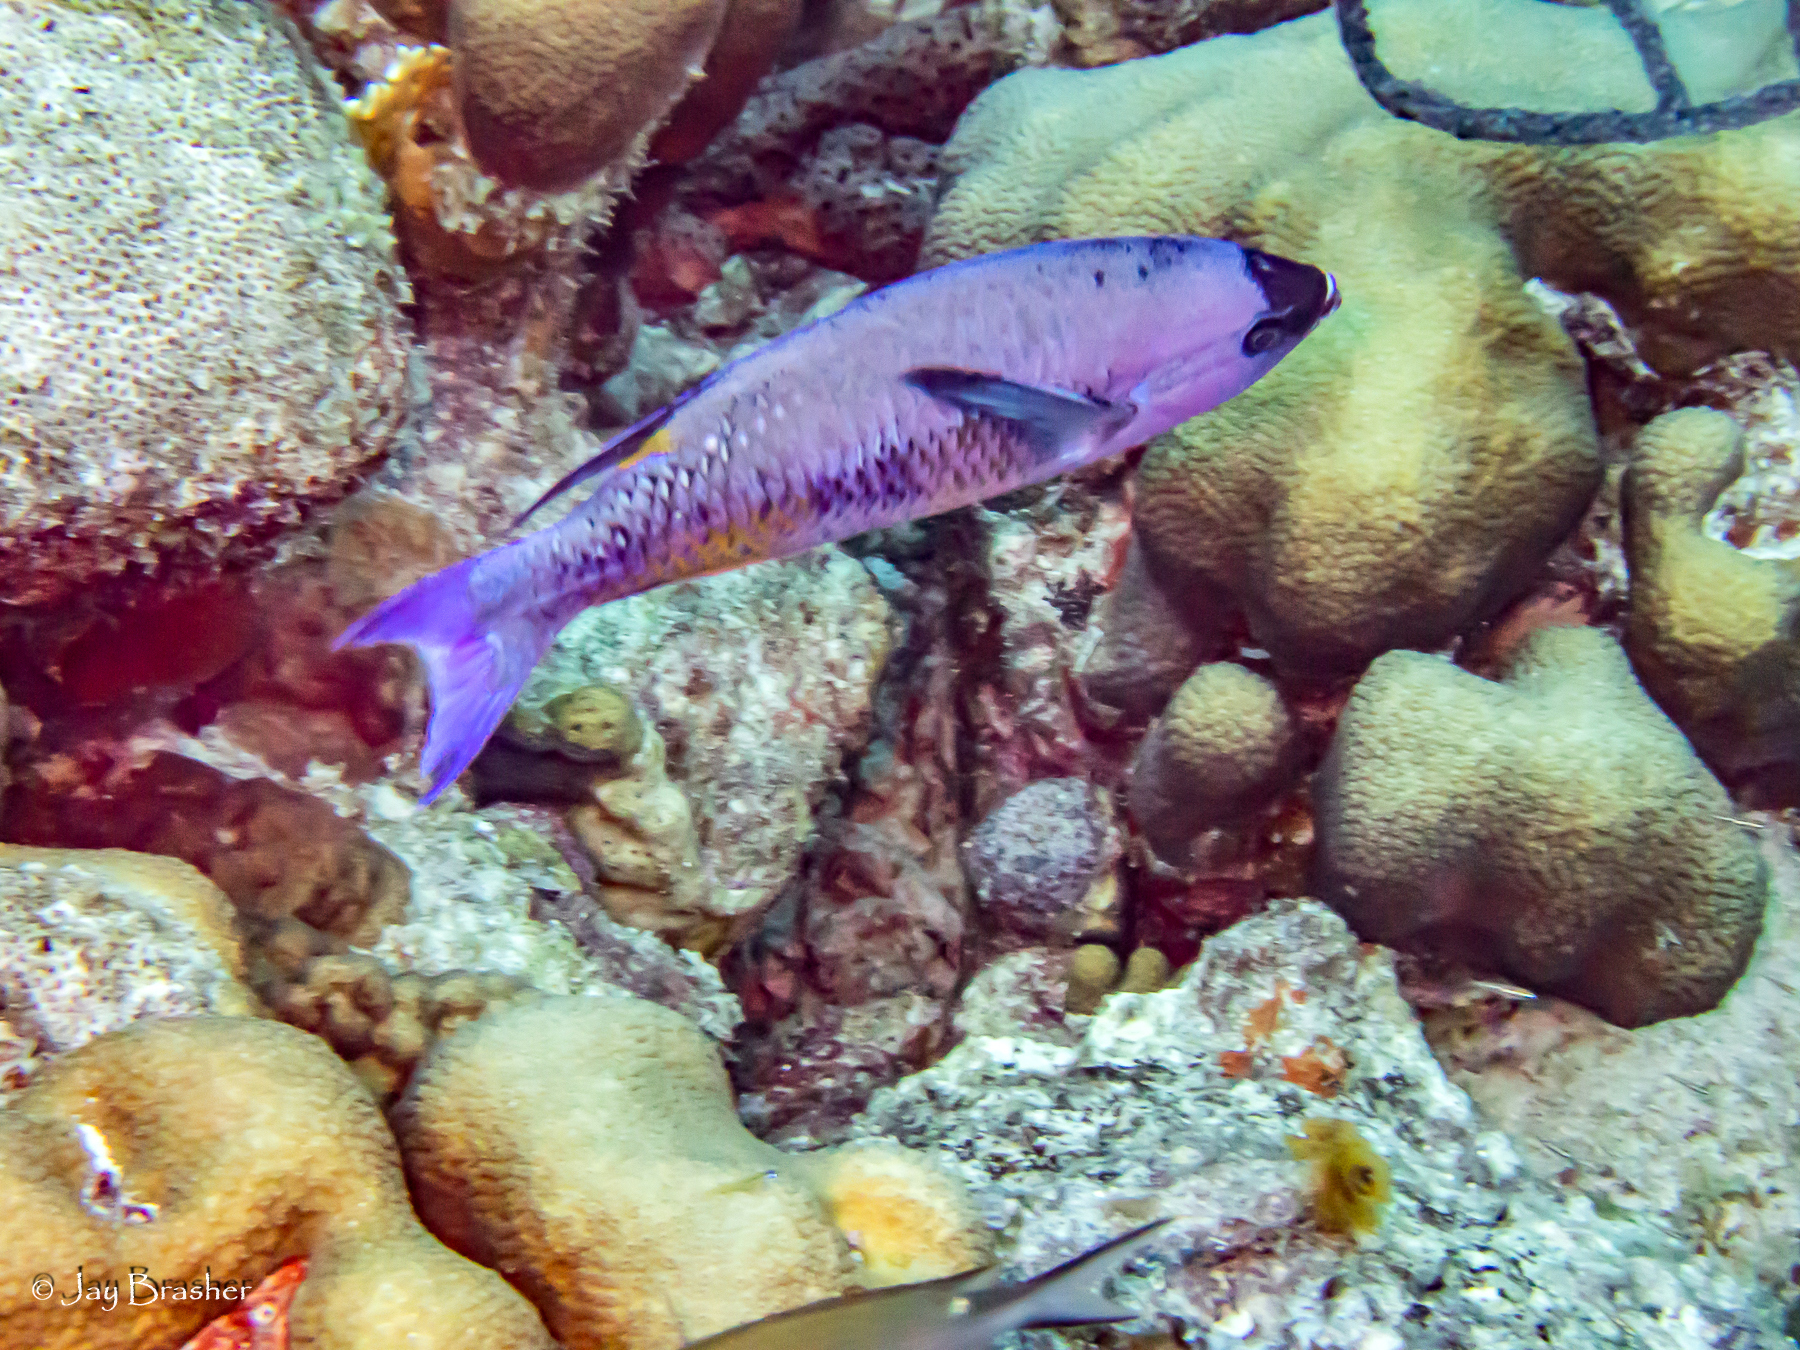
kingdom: Animalia
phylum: Chordata
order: Perciformes
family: Labridae
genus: Bodianus
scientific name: Bodianus
